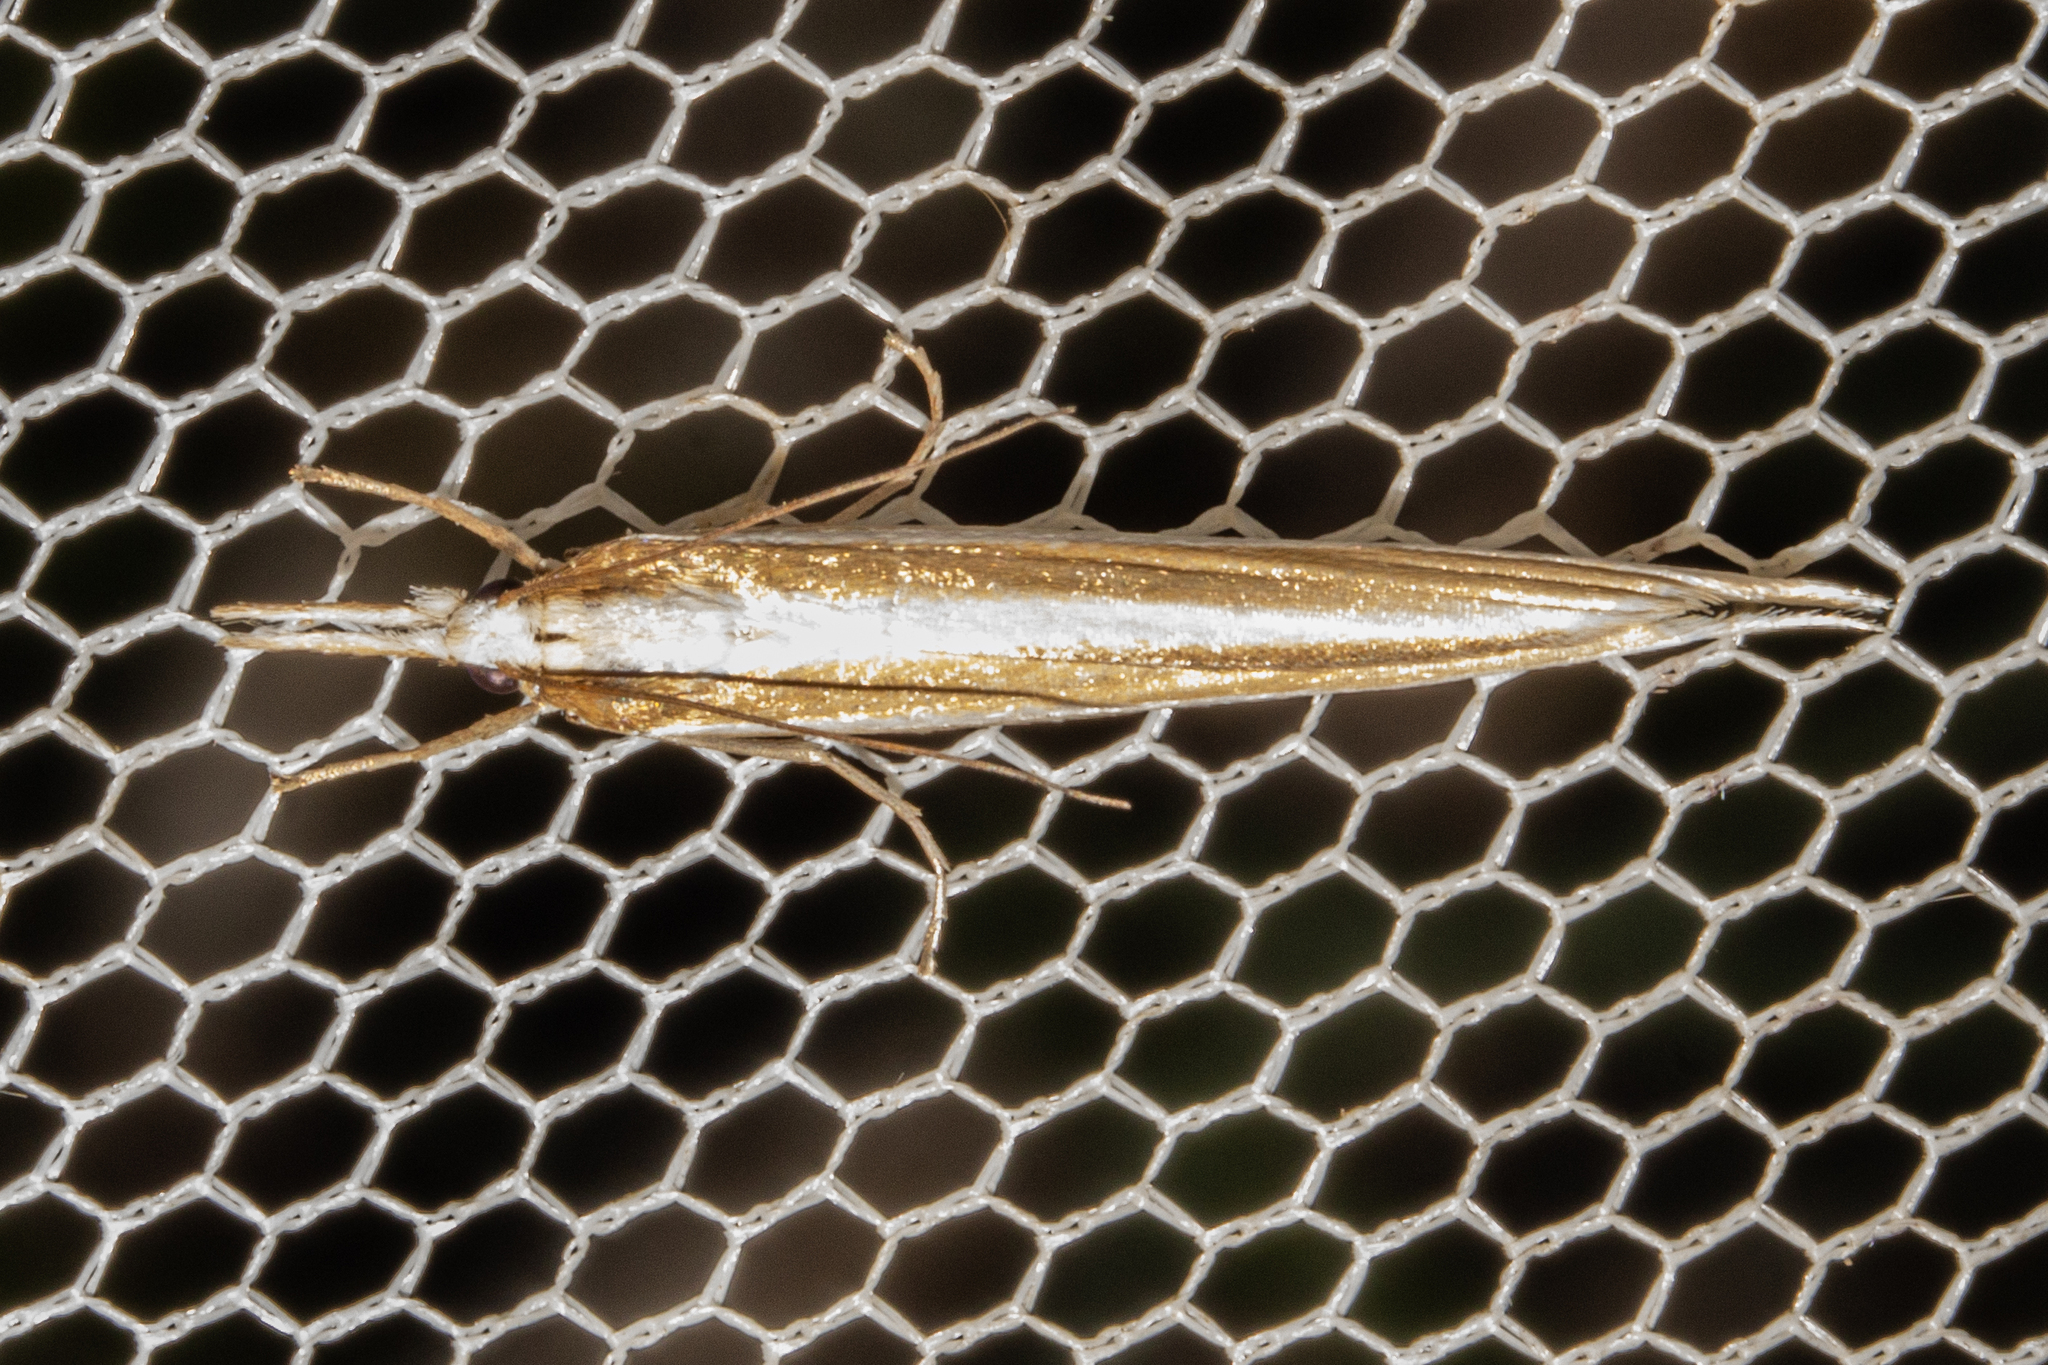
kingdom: Animalia
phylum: Arthropoda
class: Insecta
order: Lepidoptera
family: Crambidae
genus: Orocrambus
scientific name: Orocrambus angustipennis
